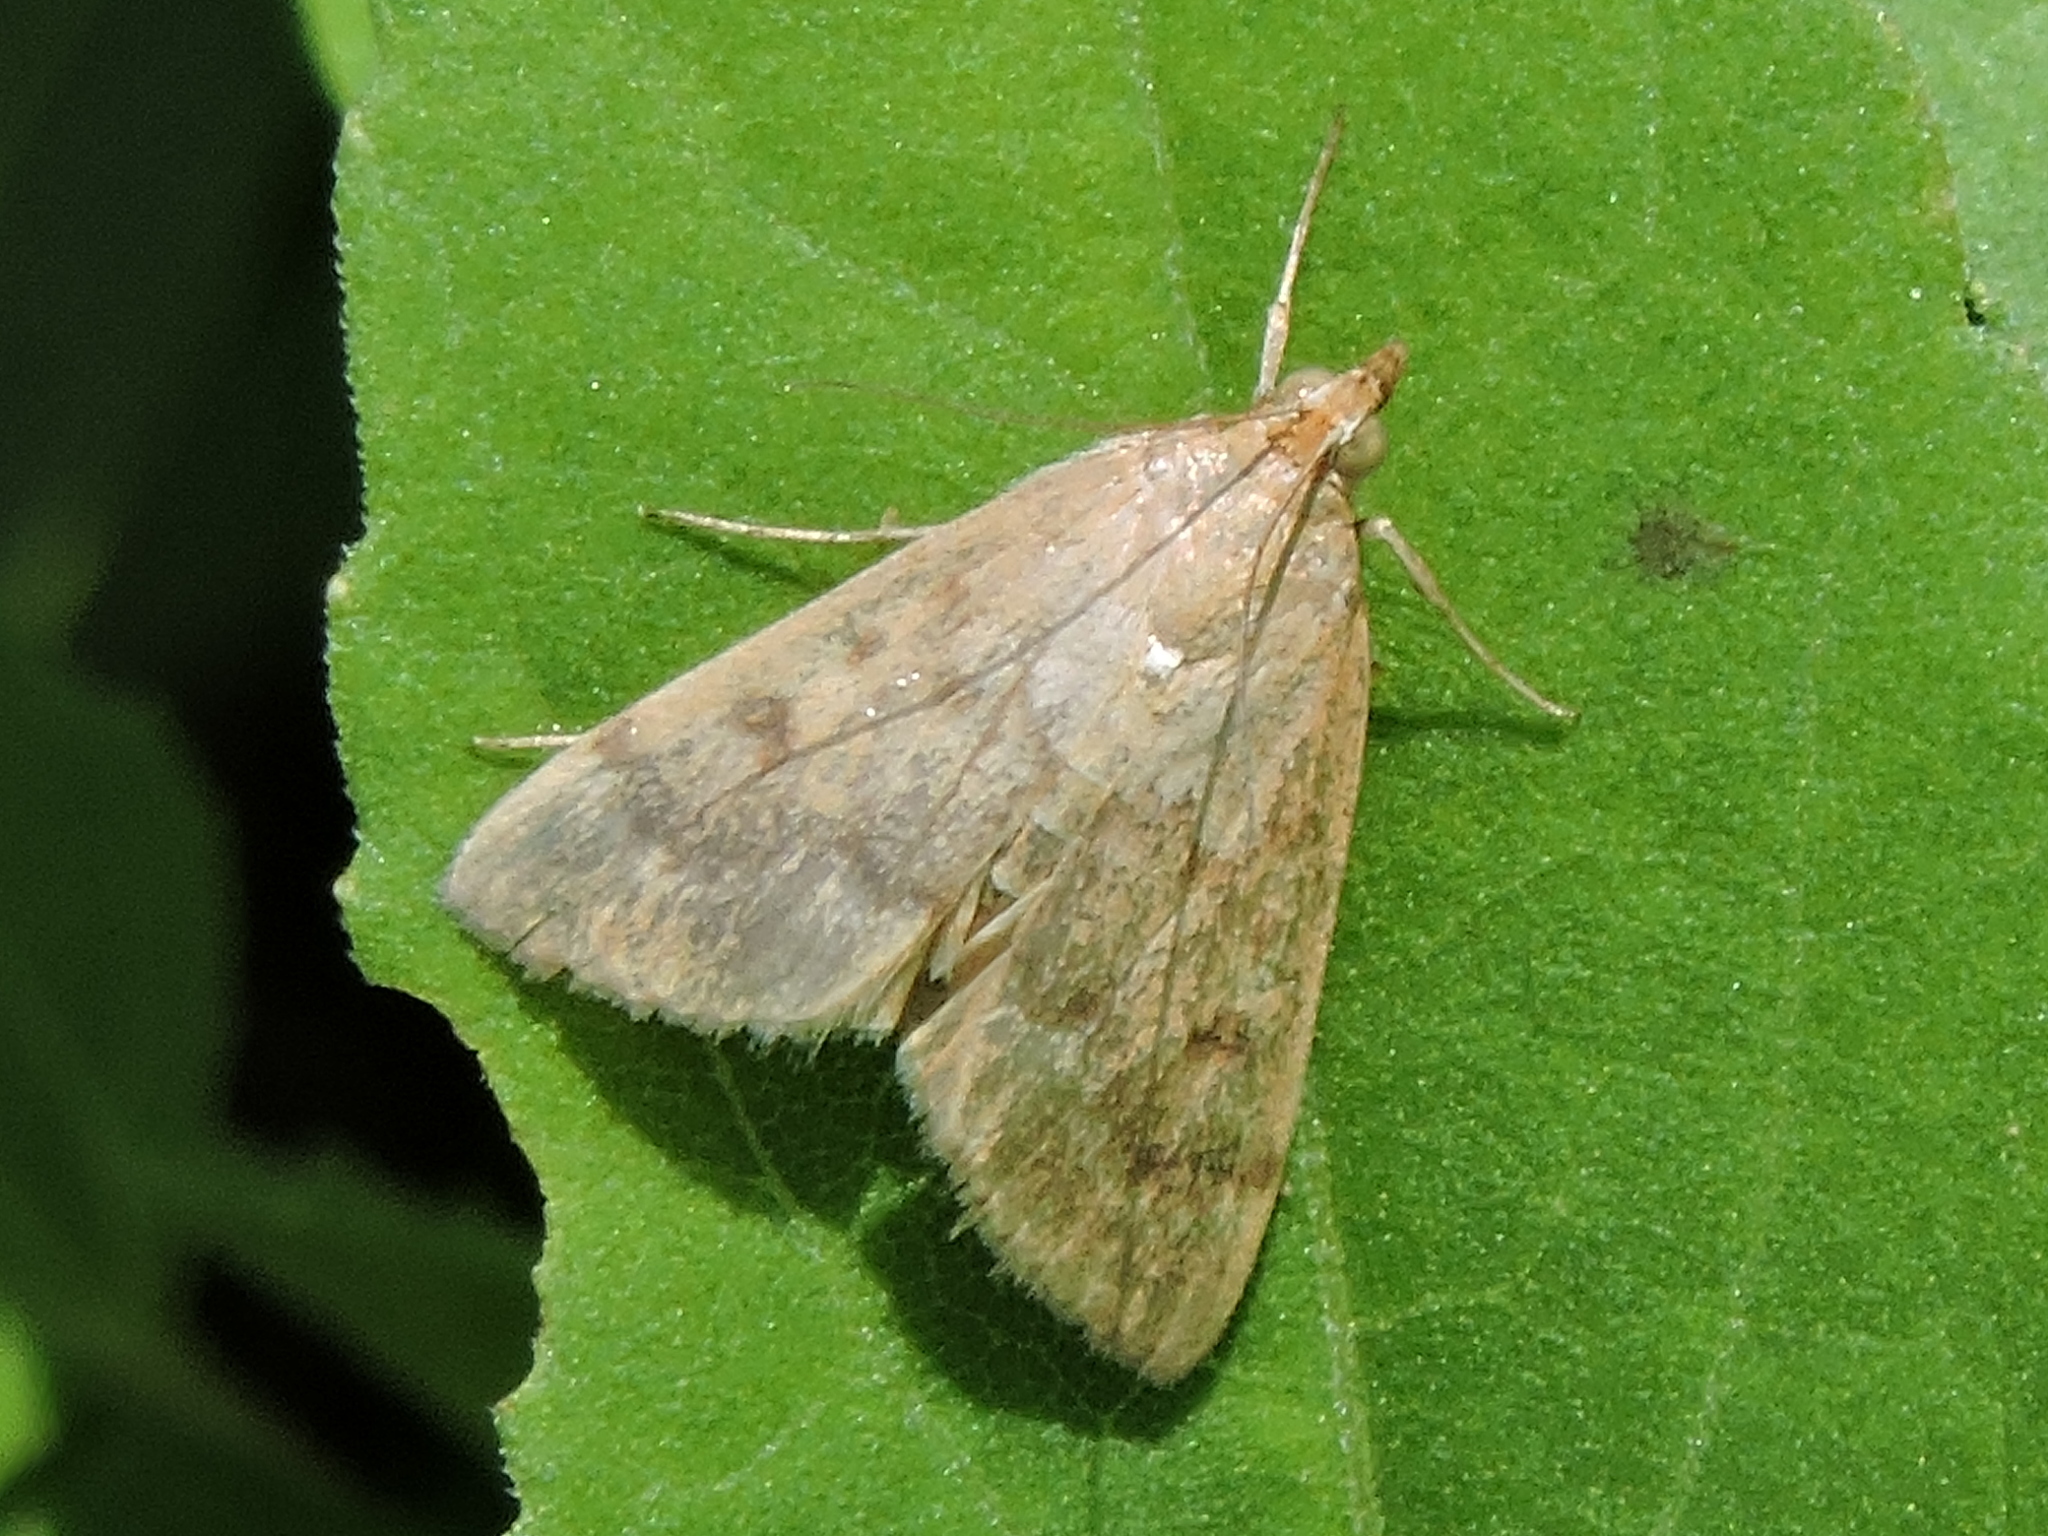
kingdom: Animalia
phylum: Arthropoda
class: Insecta
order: Lepidoptera
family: Crambidae
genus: Udea
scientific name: Udea rubigalis
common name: Celery leaftier moth
